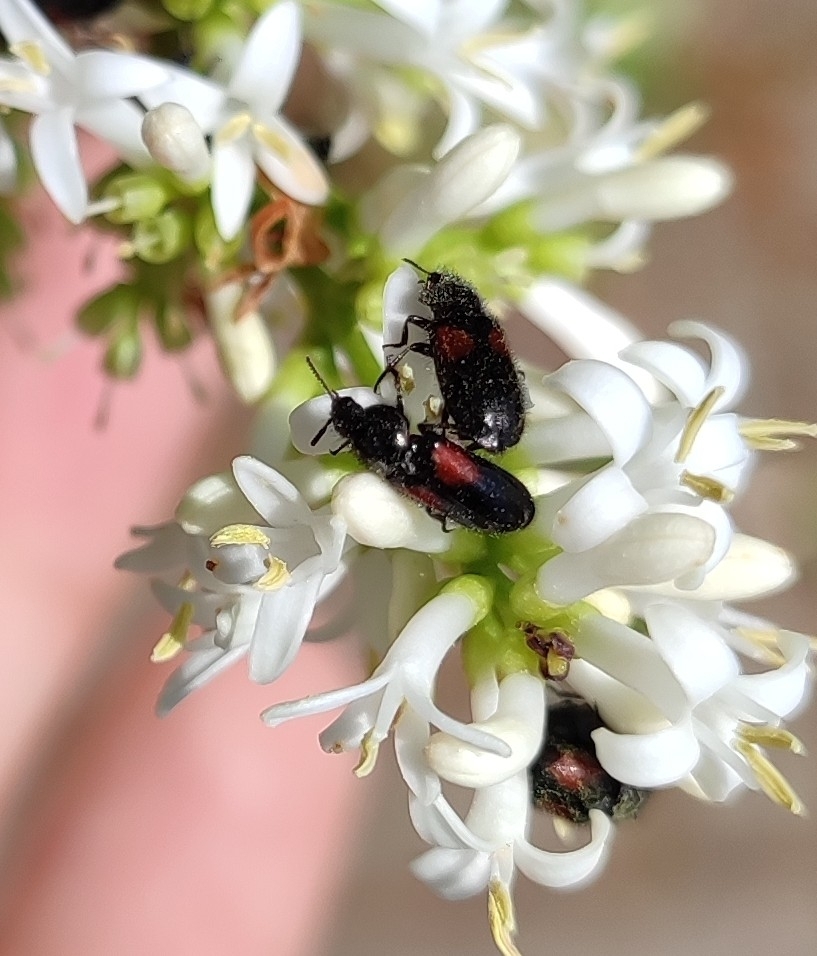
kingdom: Animalia
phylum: Arthropoda
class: Insecta
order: Coleoptera
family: Melyridae
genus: Divales
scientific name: Divales bipustulatus
